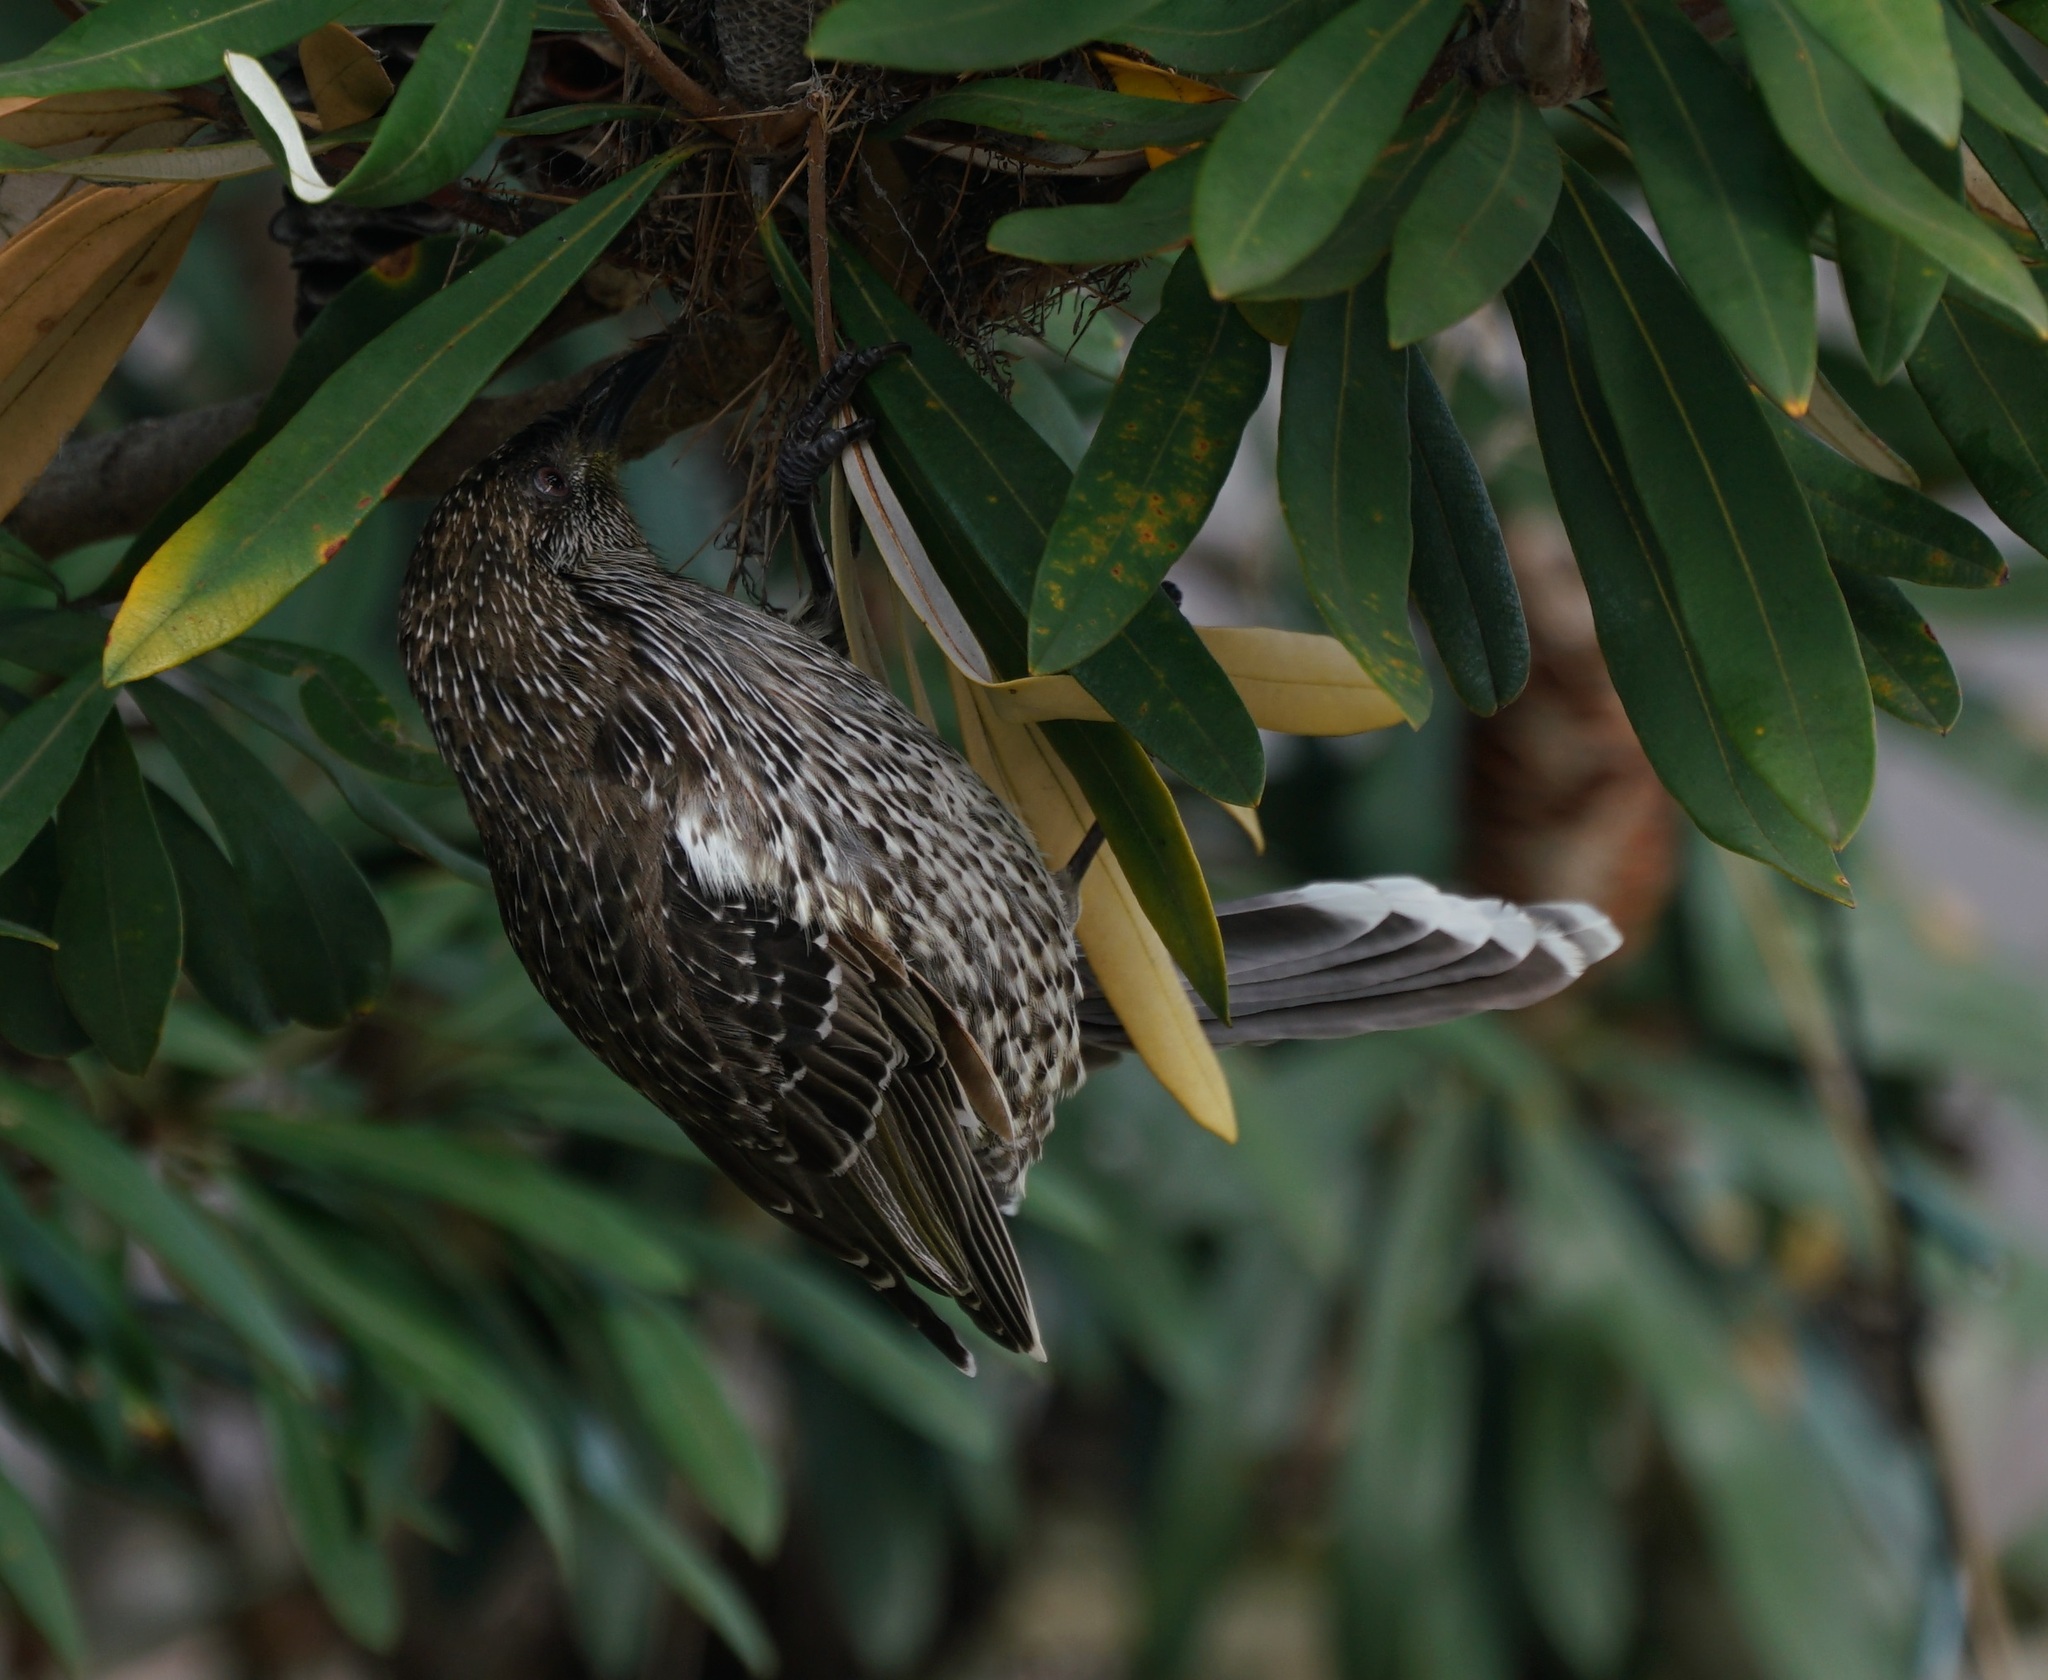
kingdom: Animalia
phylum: Chordata
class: Aves
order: Passeriformes
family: Meliphagidae
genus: Anthochaera
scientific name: Anthochaera chrysoptera
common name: Little wattlebird
